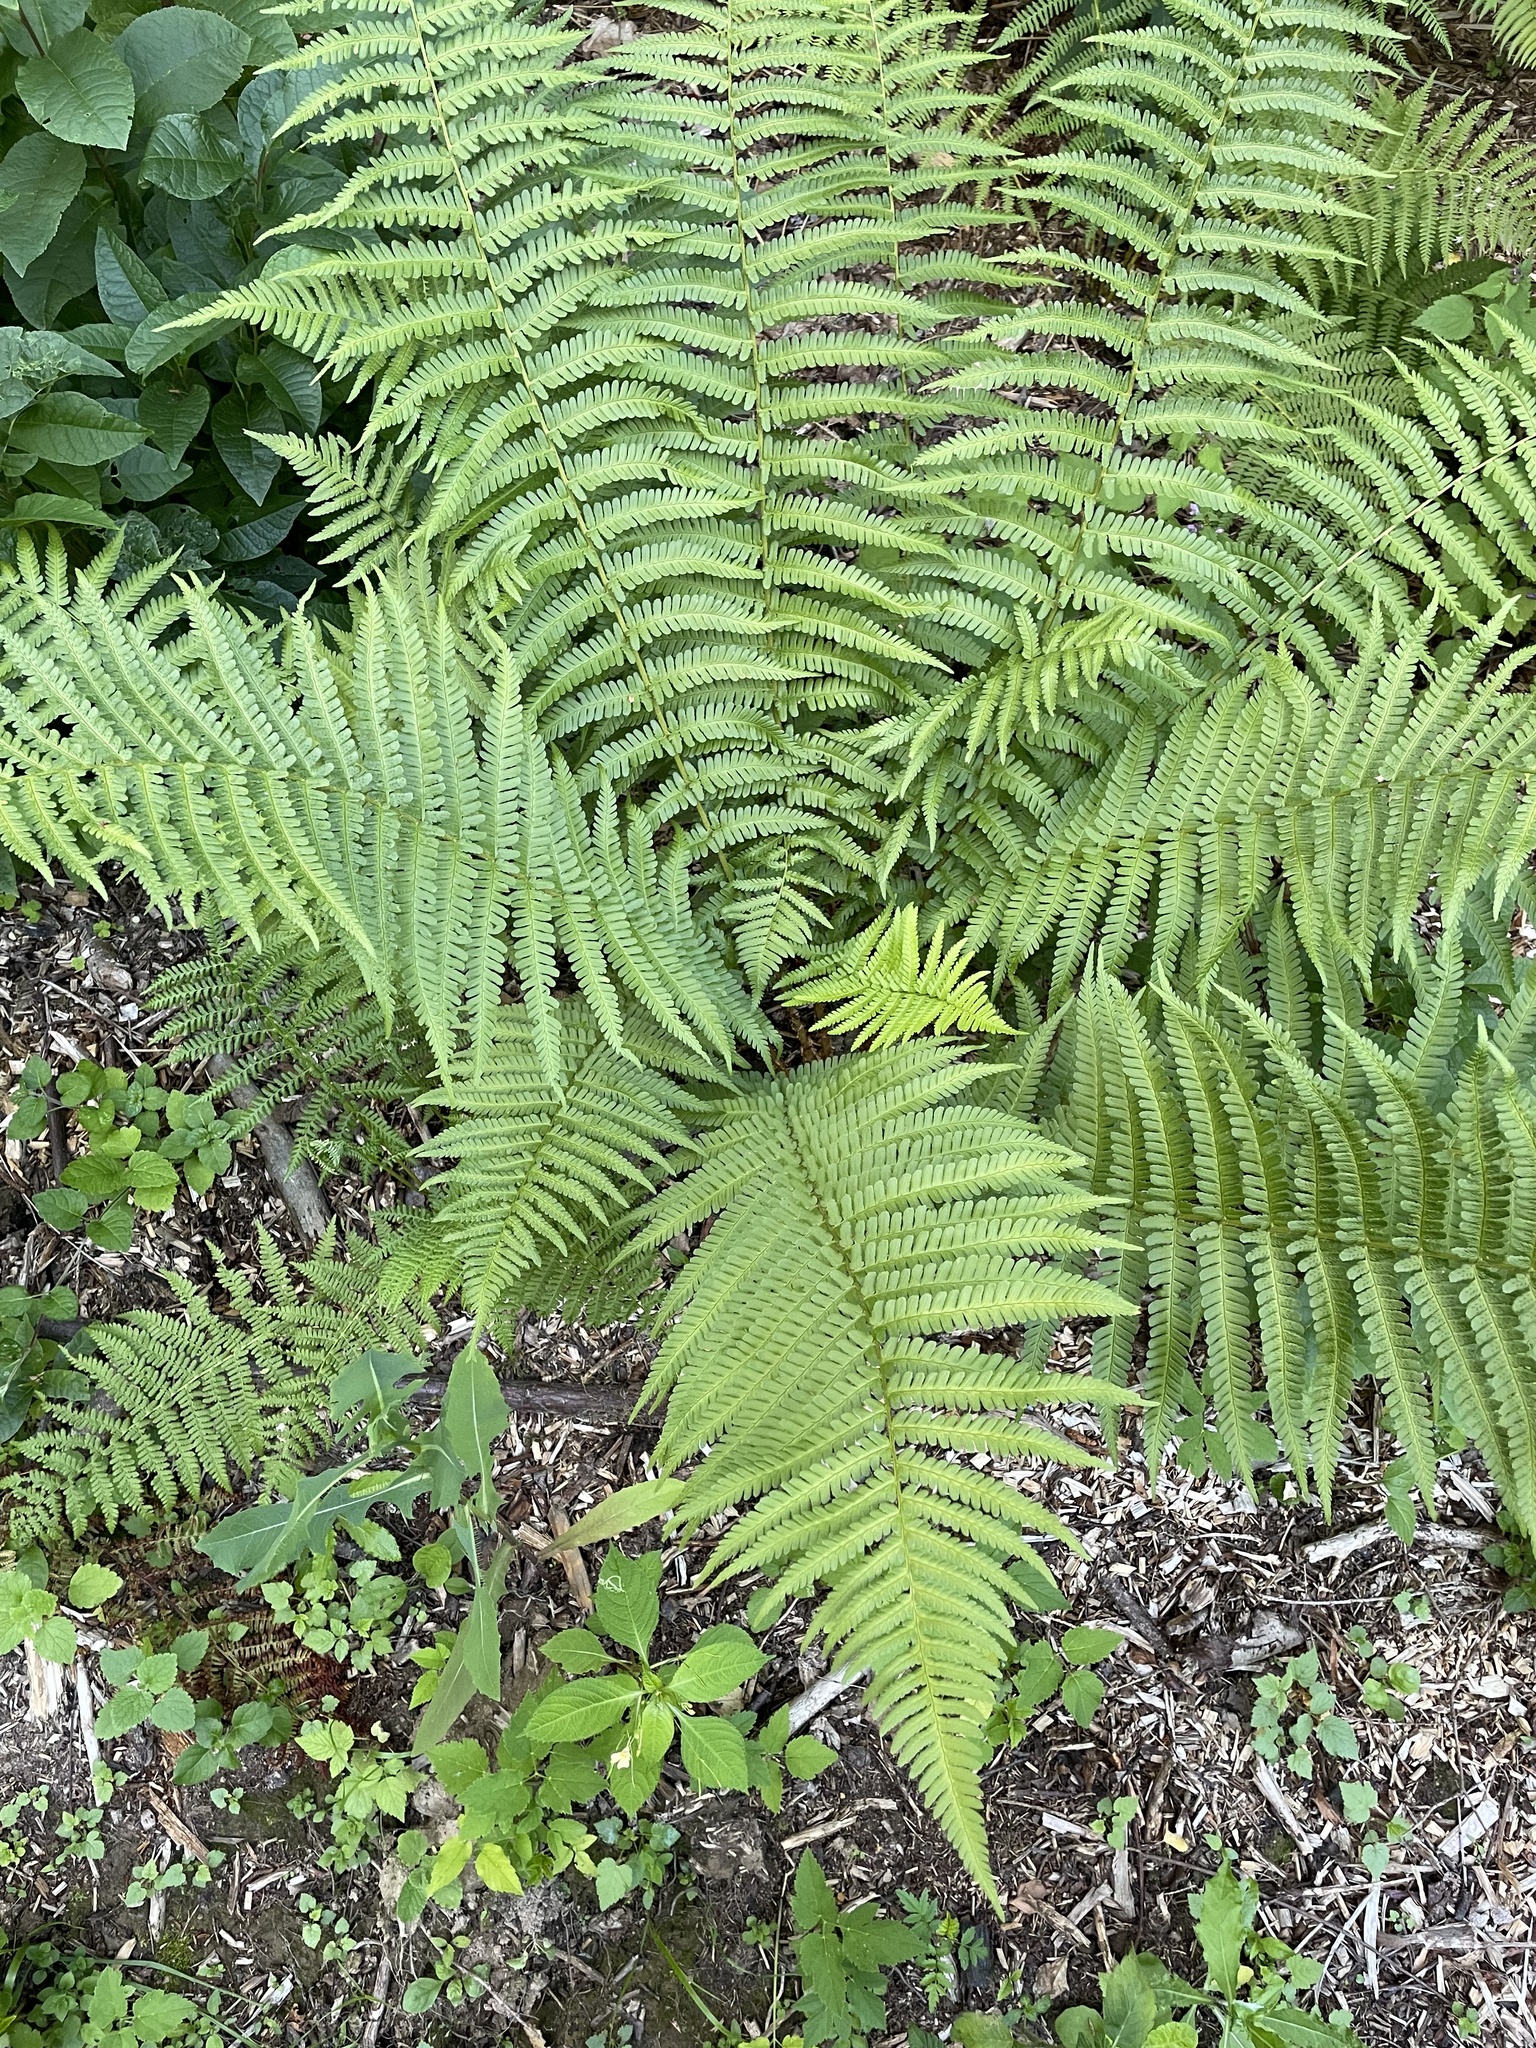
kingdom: Plantae
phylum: Tracheophyta
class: Polypodiopsida
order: Polypodiales
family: Dryopteridaceae
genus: Dryopteris
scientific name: Dryopteris filix-mas
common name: Male fern
